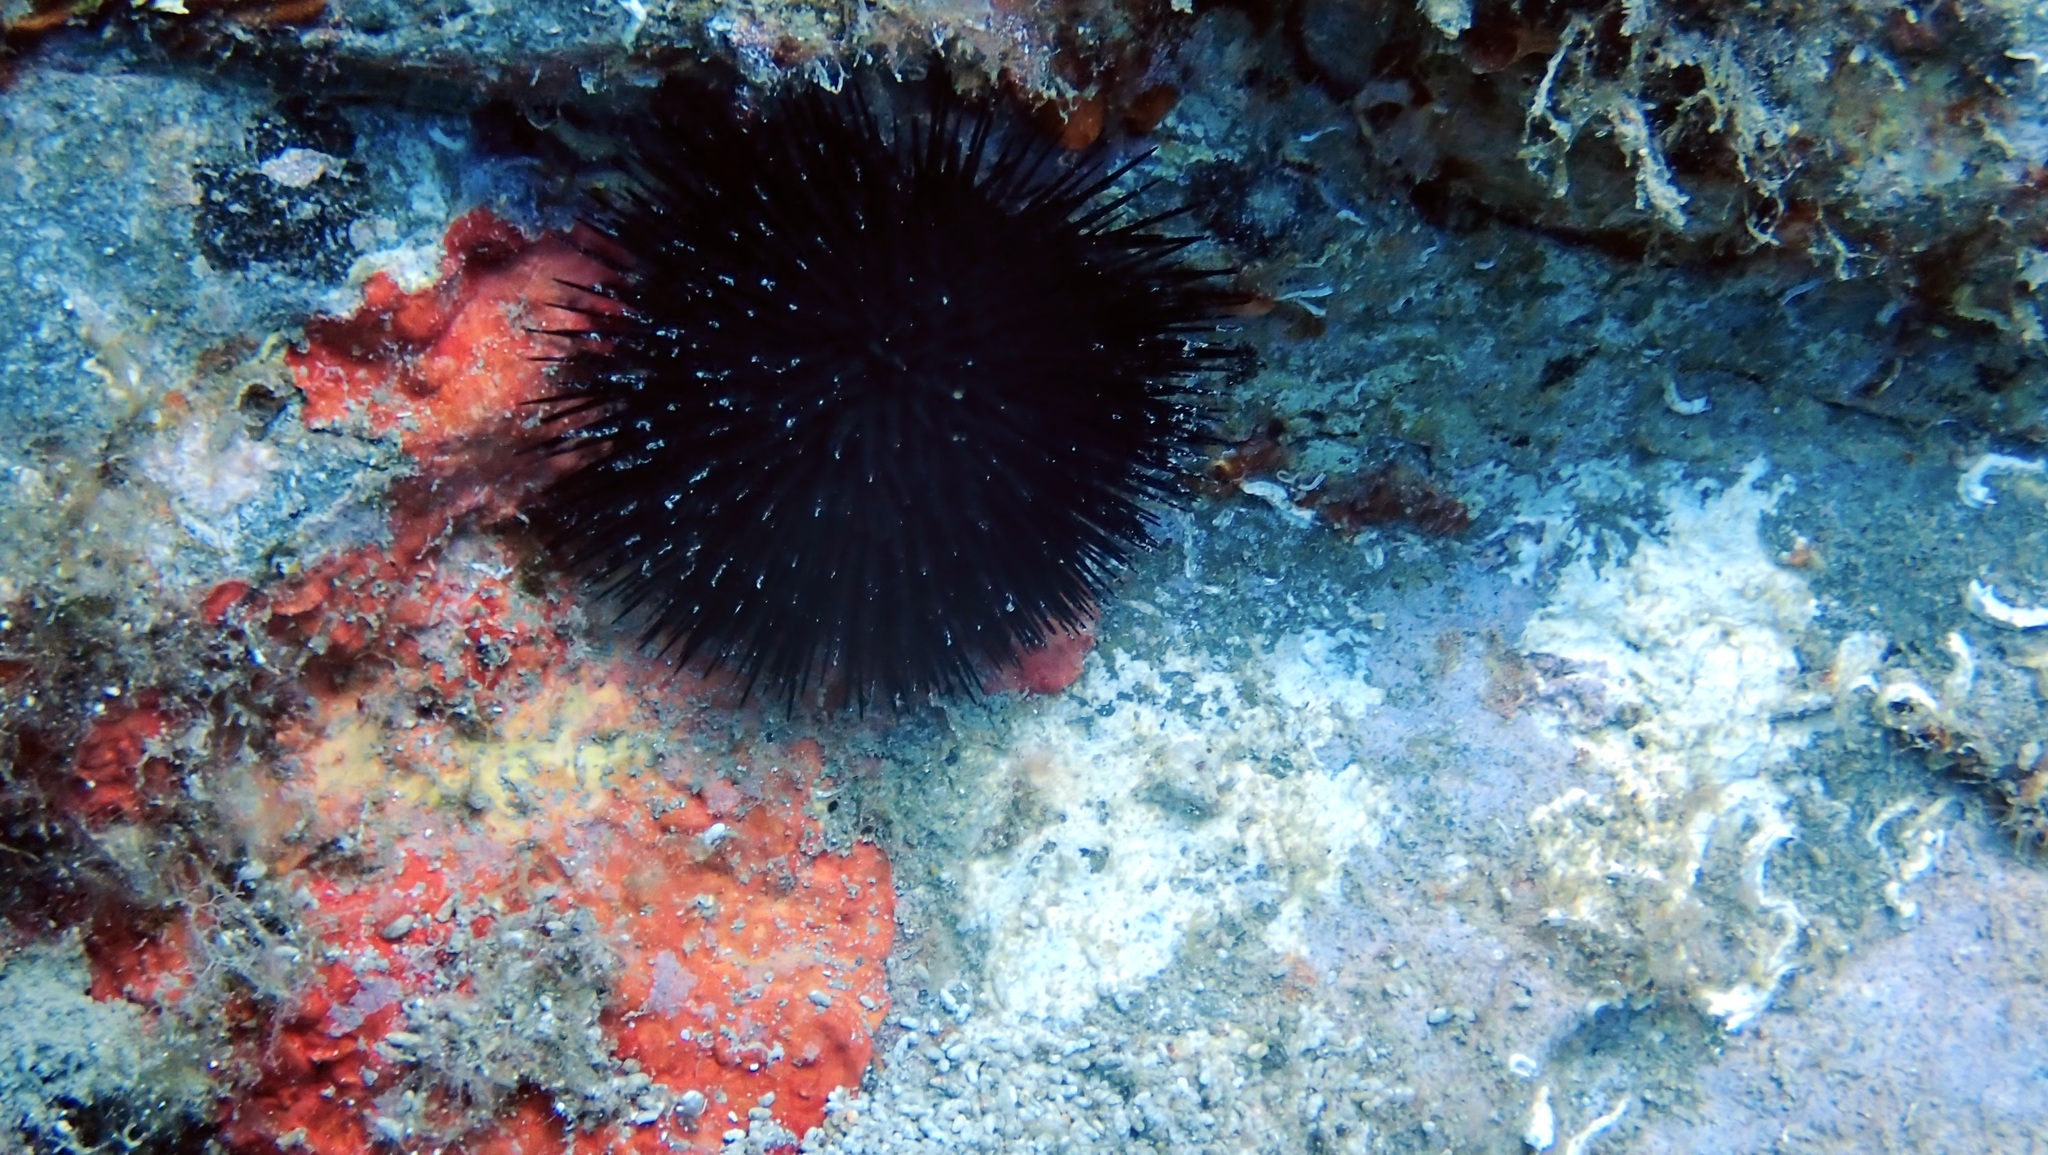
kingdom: Animalia
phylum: Echinodermata
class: Echinoidea
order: Arbacioida
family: Arbaciidae
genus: Arbacia
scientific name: Arbacia lixula
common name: Black sea urchin
